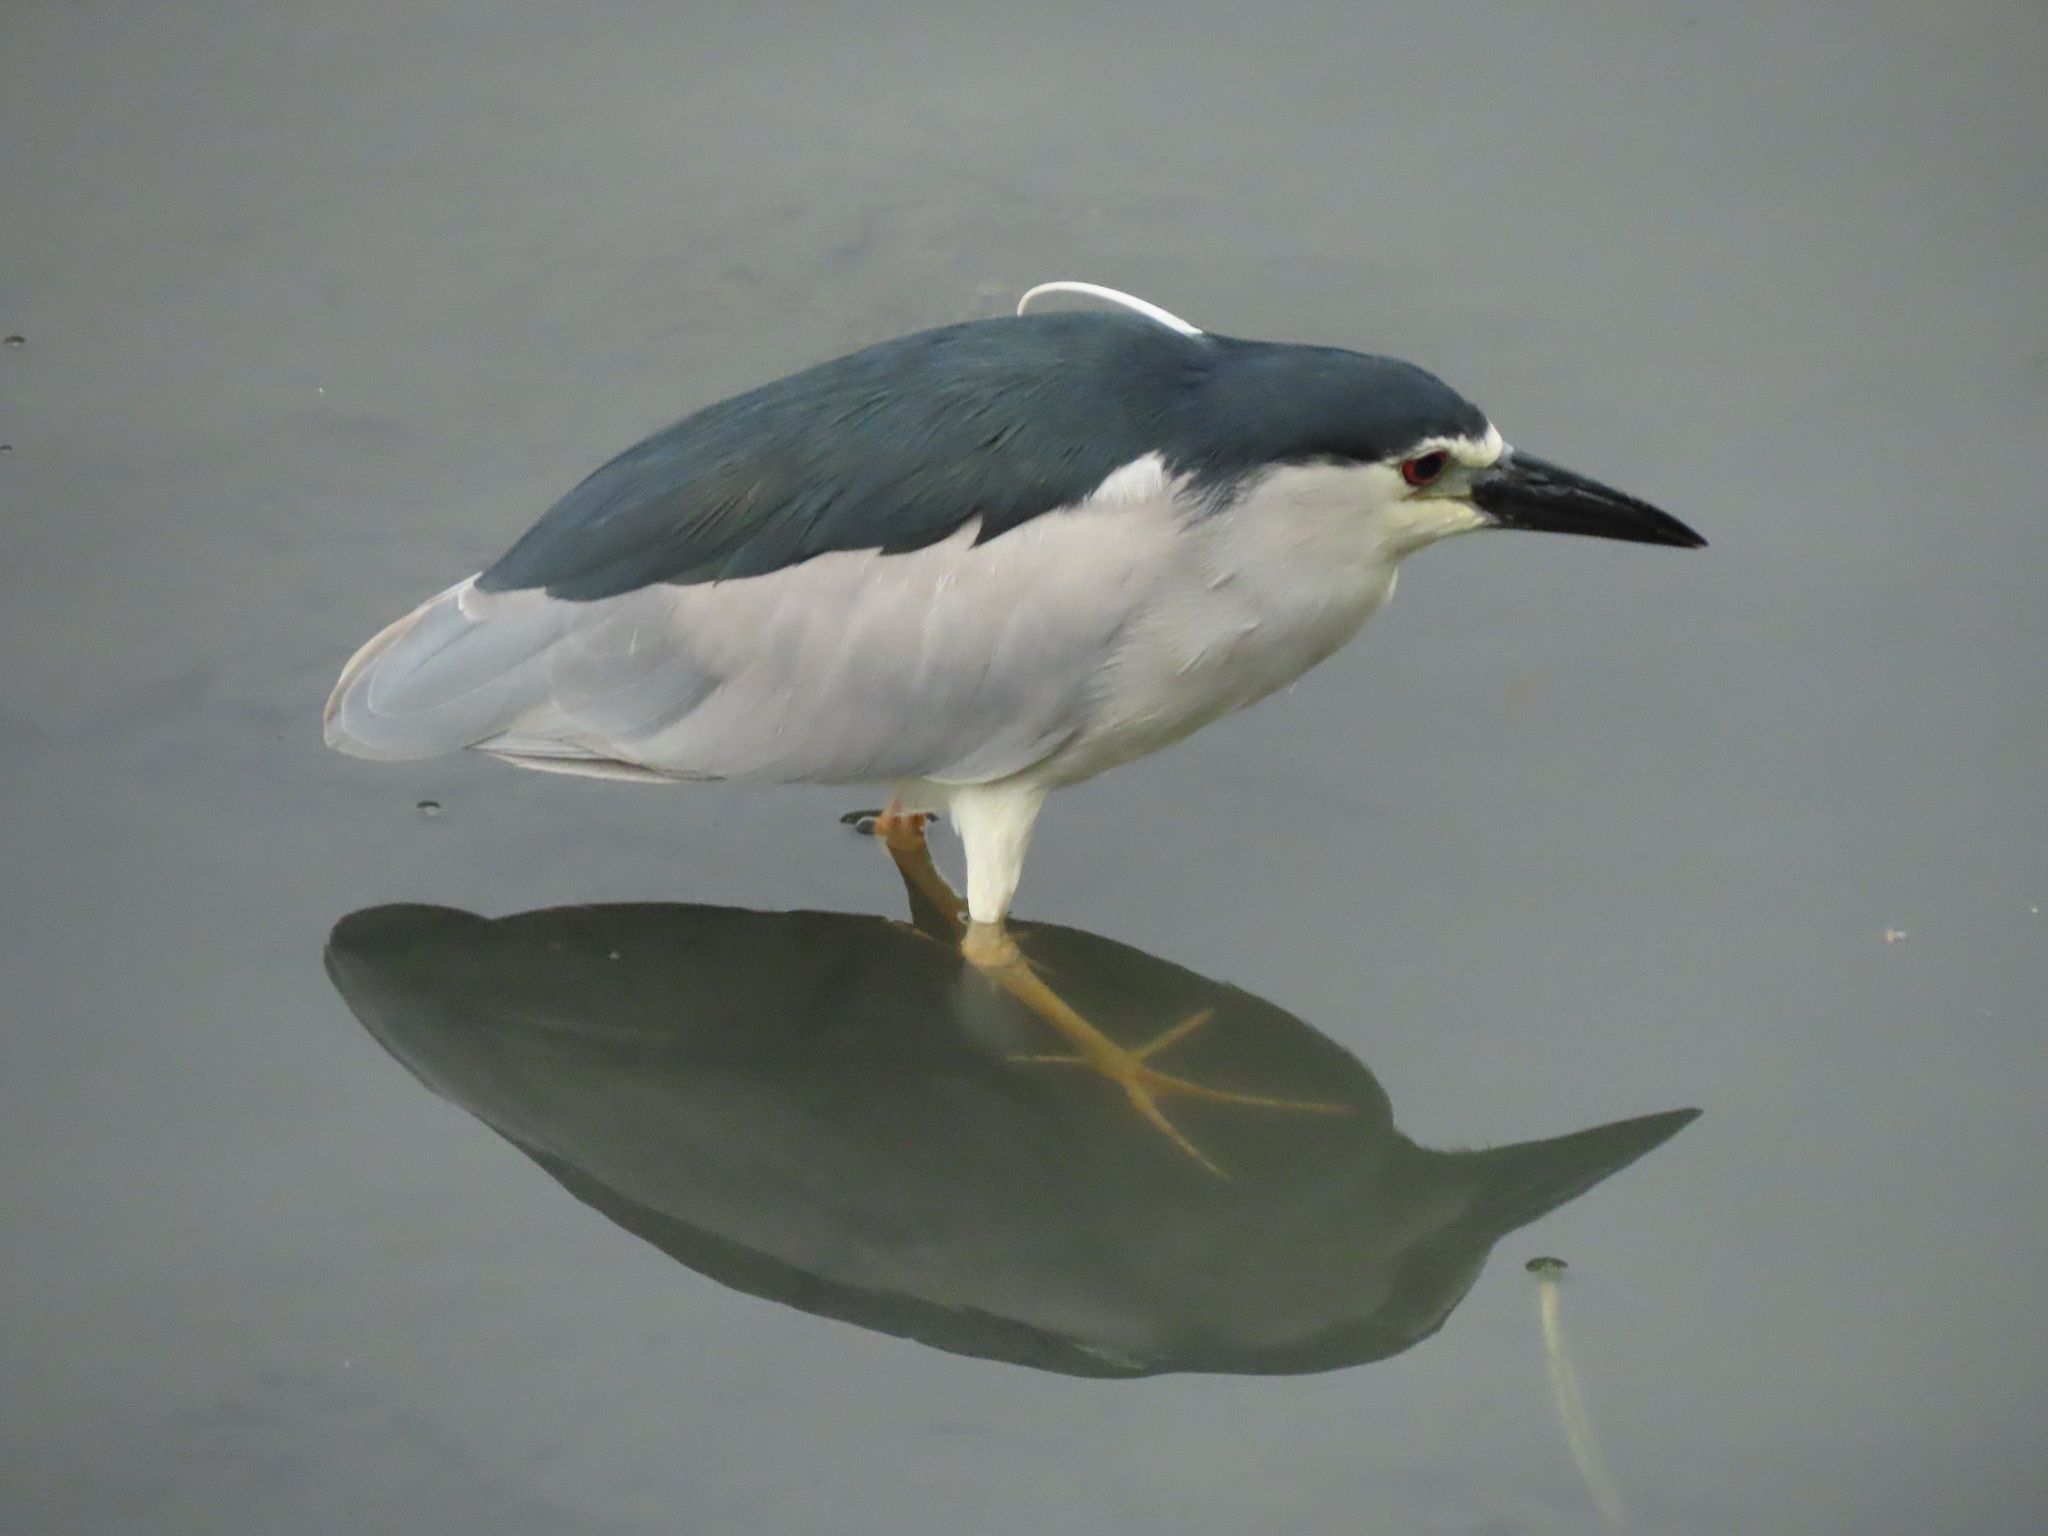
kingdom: Animalia
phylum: Chordata
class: Aves
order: Pelecaniformes
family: Ardeidae
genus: Nycticorax
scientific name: Nycticorax nycticorax
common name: Black-crowned night heron
